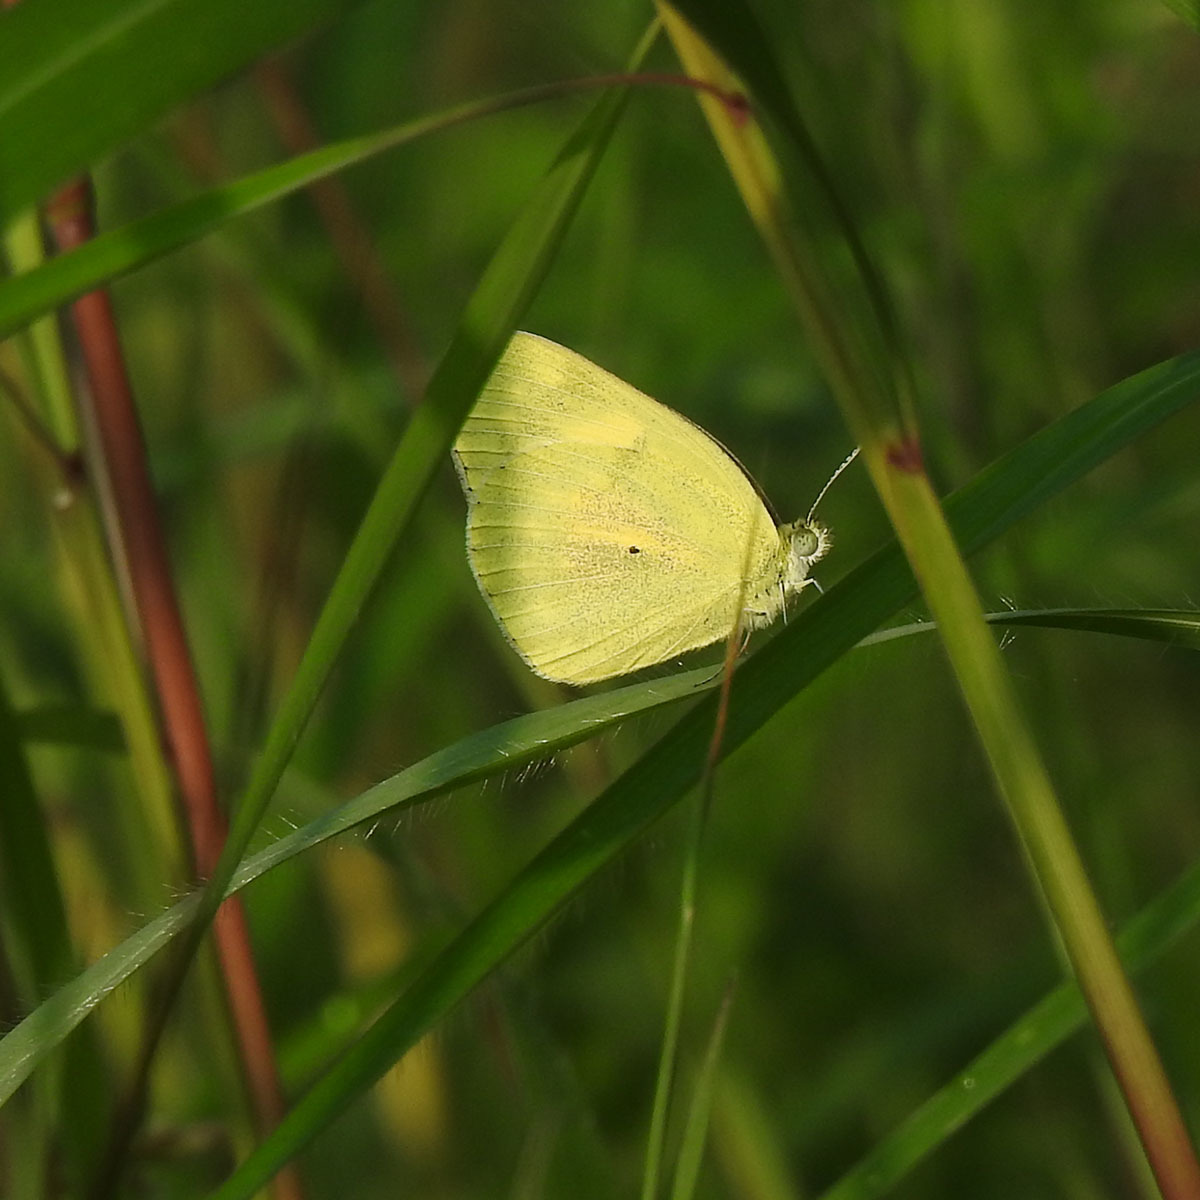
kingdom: Animalia
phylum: Arthropoda
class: Insecta
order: Lepidoptera
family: Pieridae
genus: Colotis
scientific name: Colotis amata
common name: Small salmon arab
